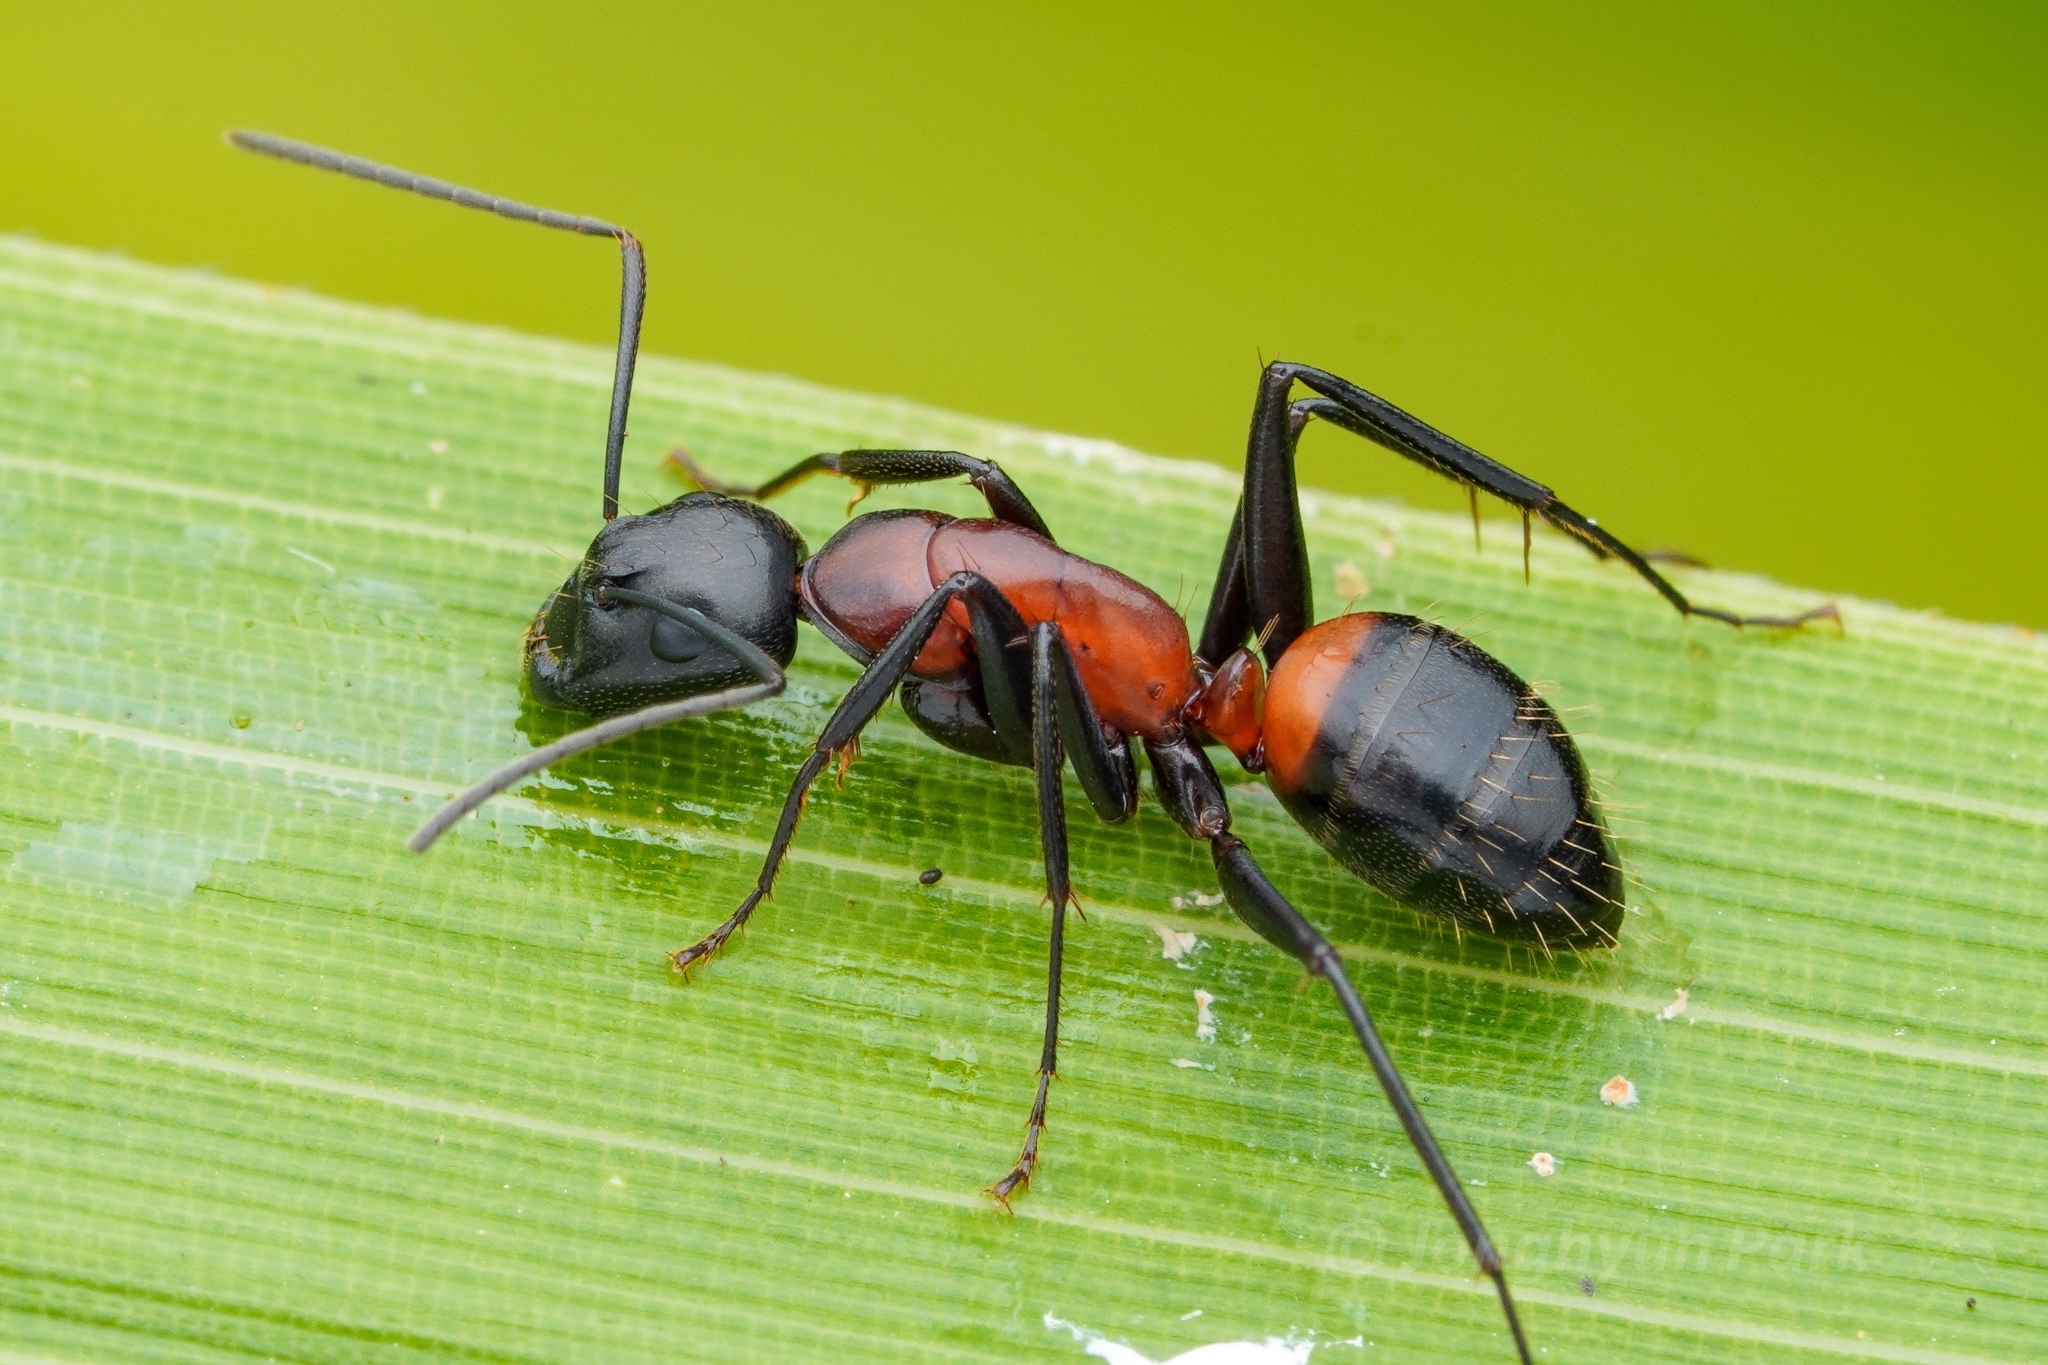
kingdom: Animalia
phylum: Arthropoda
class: Insecta
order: Hymenoptera
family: Formicidae
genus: Camponotus
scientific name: Camponotus obscuripes
